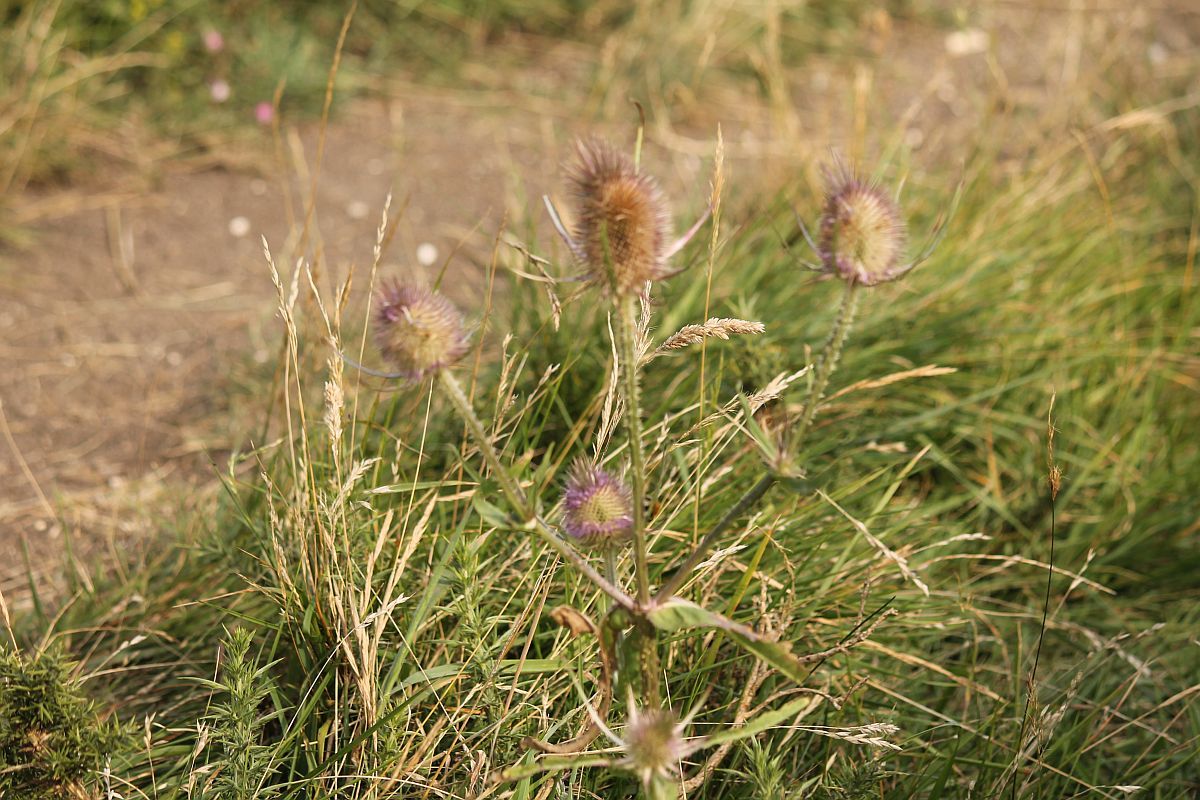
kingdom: Plantae
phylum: Tracheophyta
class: Magnoliopsida
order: Dipsacales
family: Caprifoliaceae
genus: Dipsacus
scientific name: Dipsacus fullonum
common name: Teasel
